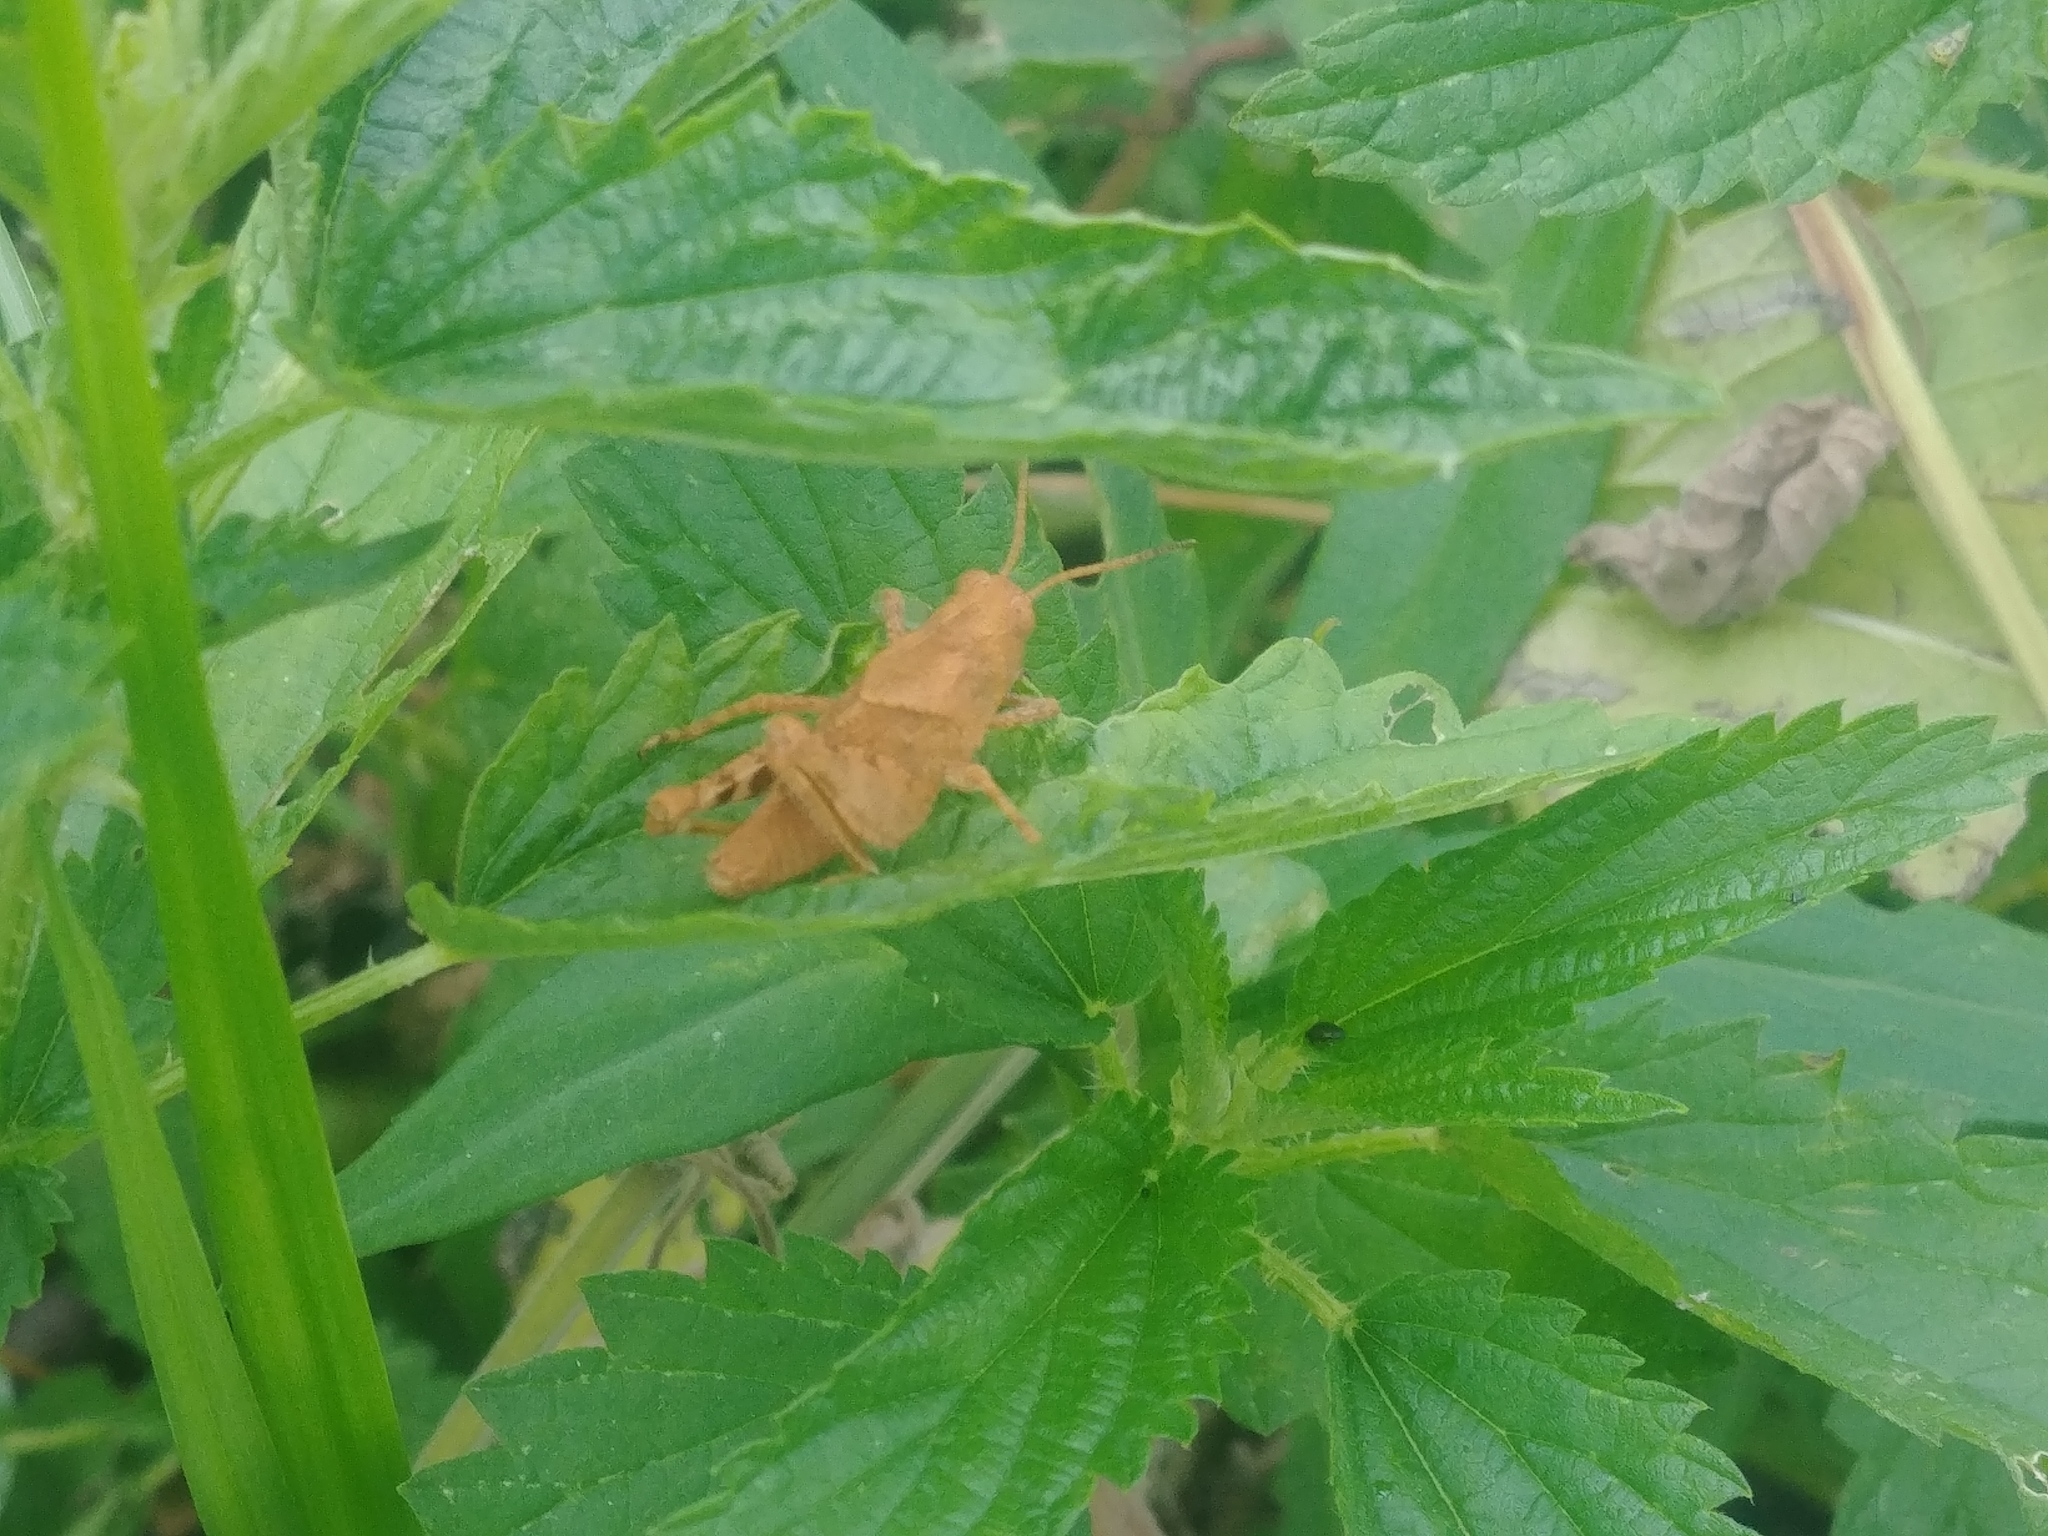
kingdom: Animalia
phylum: Arthropoda
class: Insecta
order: Orthoptera
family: Acrididae
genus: Dissosteira
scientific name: Dissosteira carolina
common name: Carolina grasshopper
